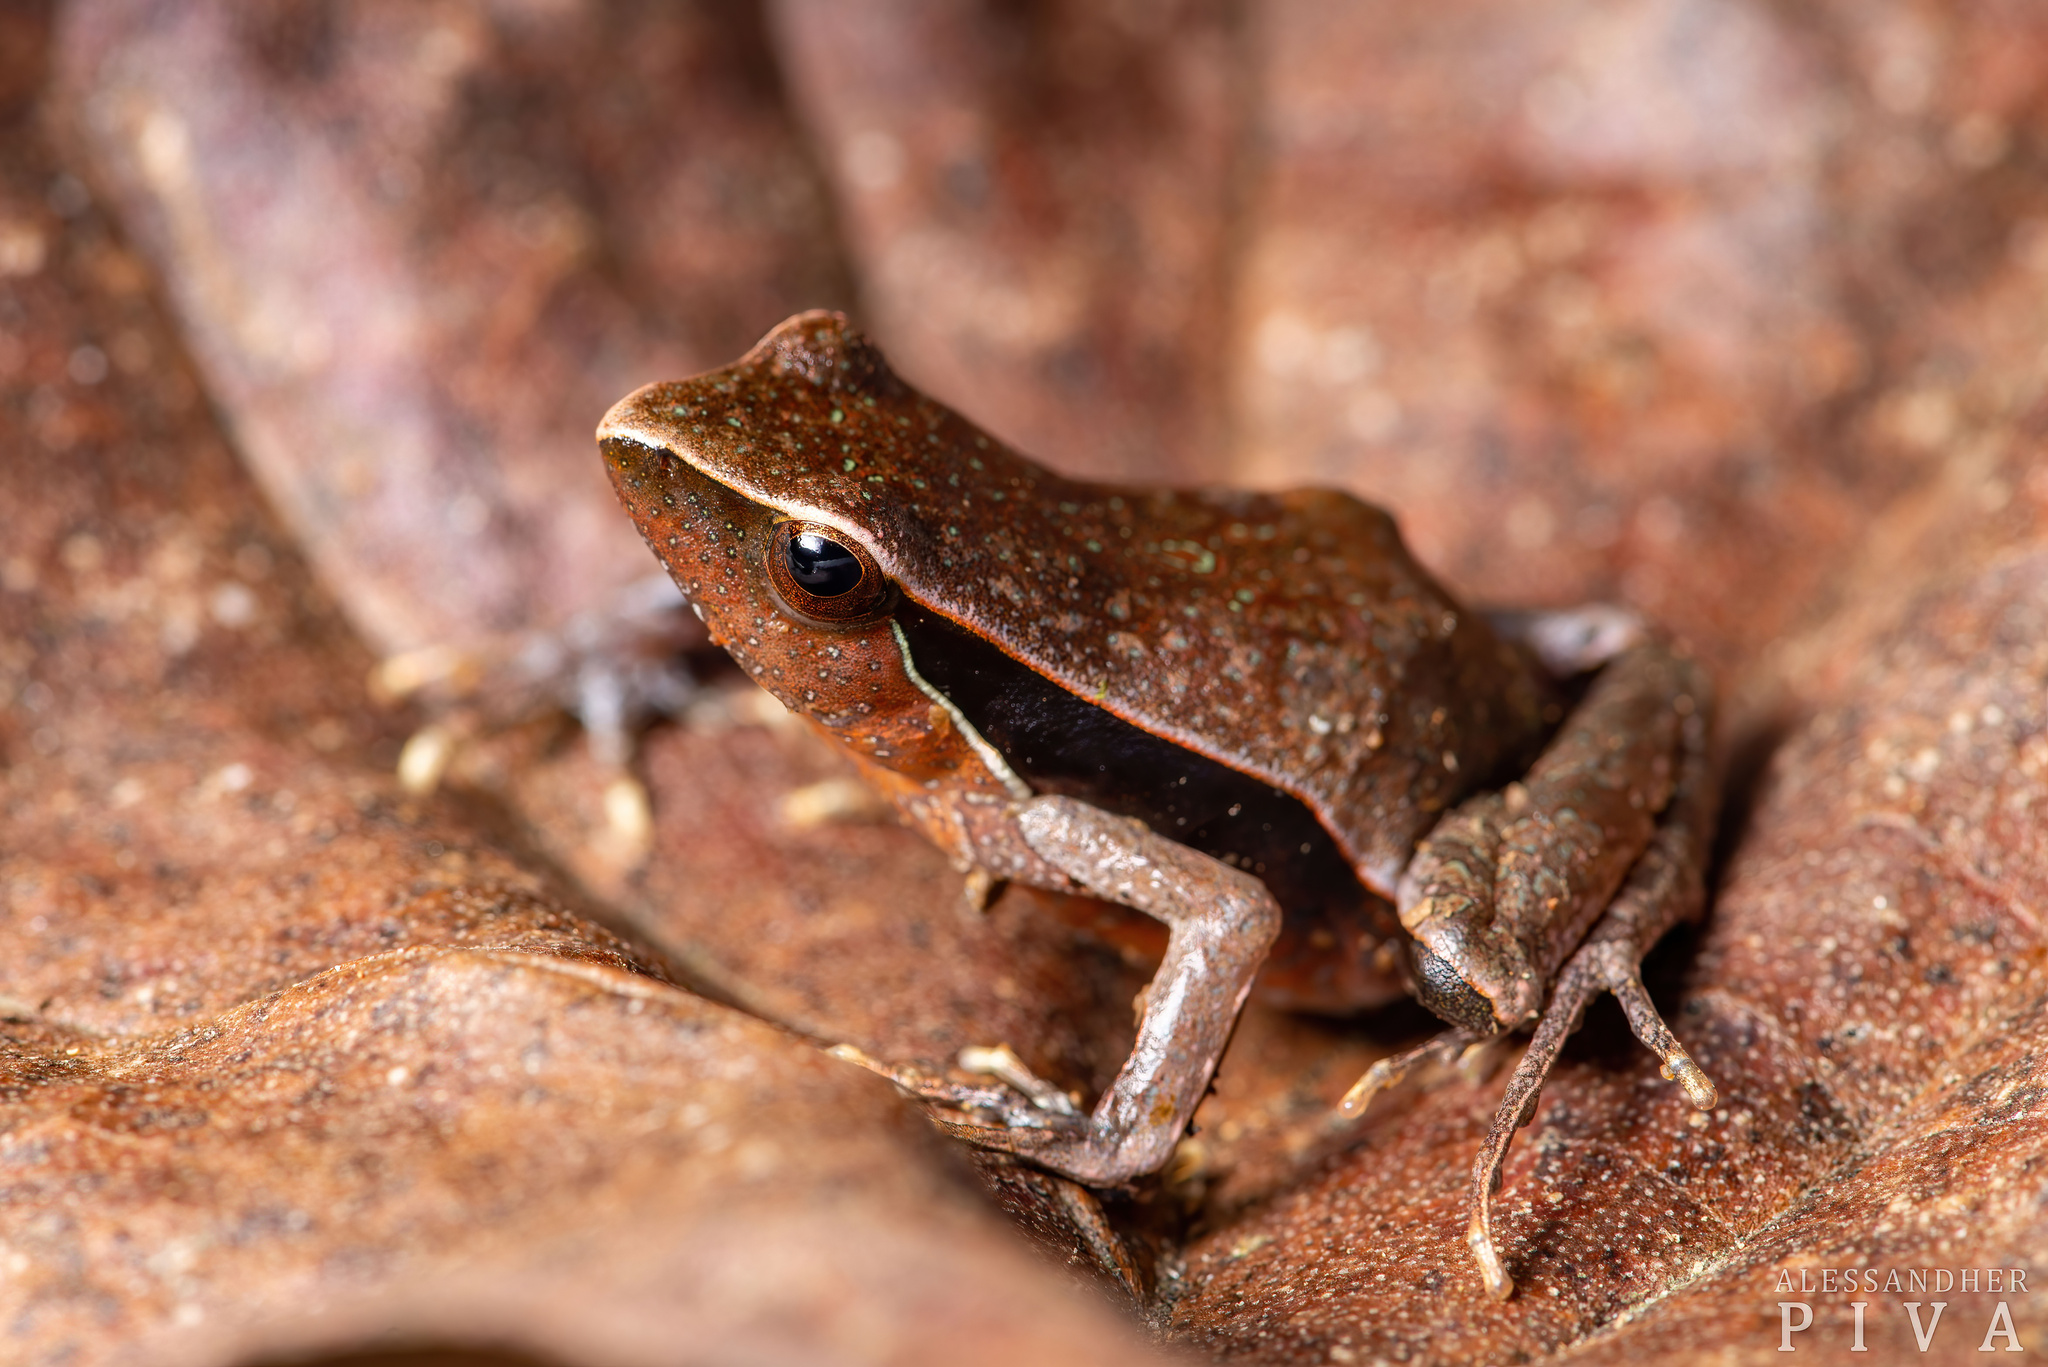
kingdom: Animalia
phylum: Chordata
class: Amphibia
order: Anura
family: Leptodactylidae
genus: Physalaemus
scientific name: Physalaemus lateristriga
